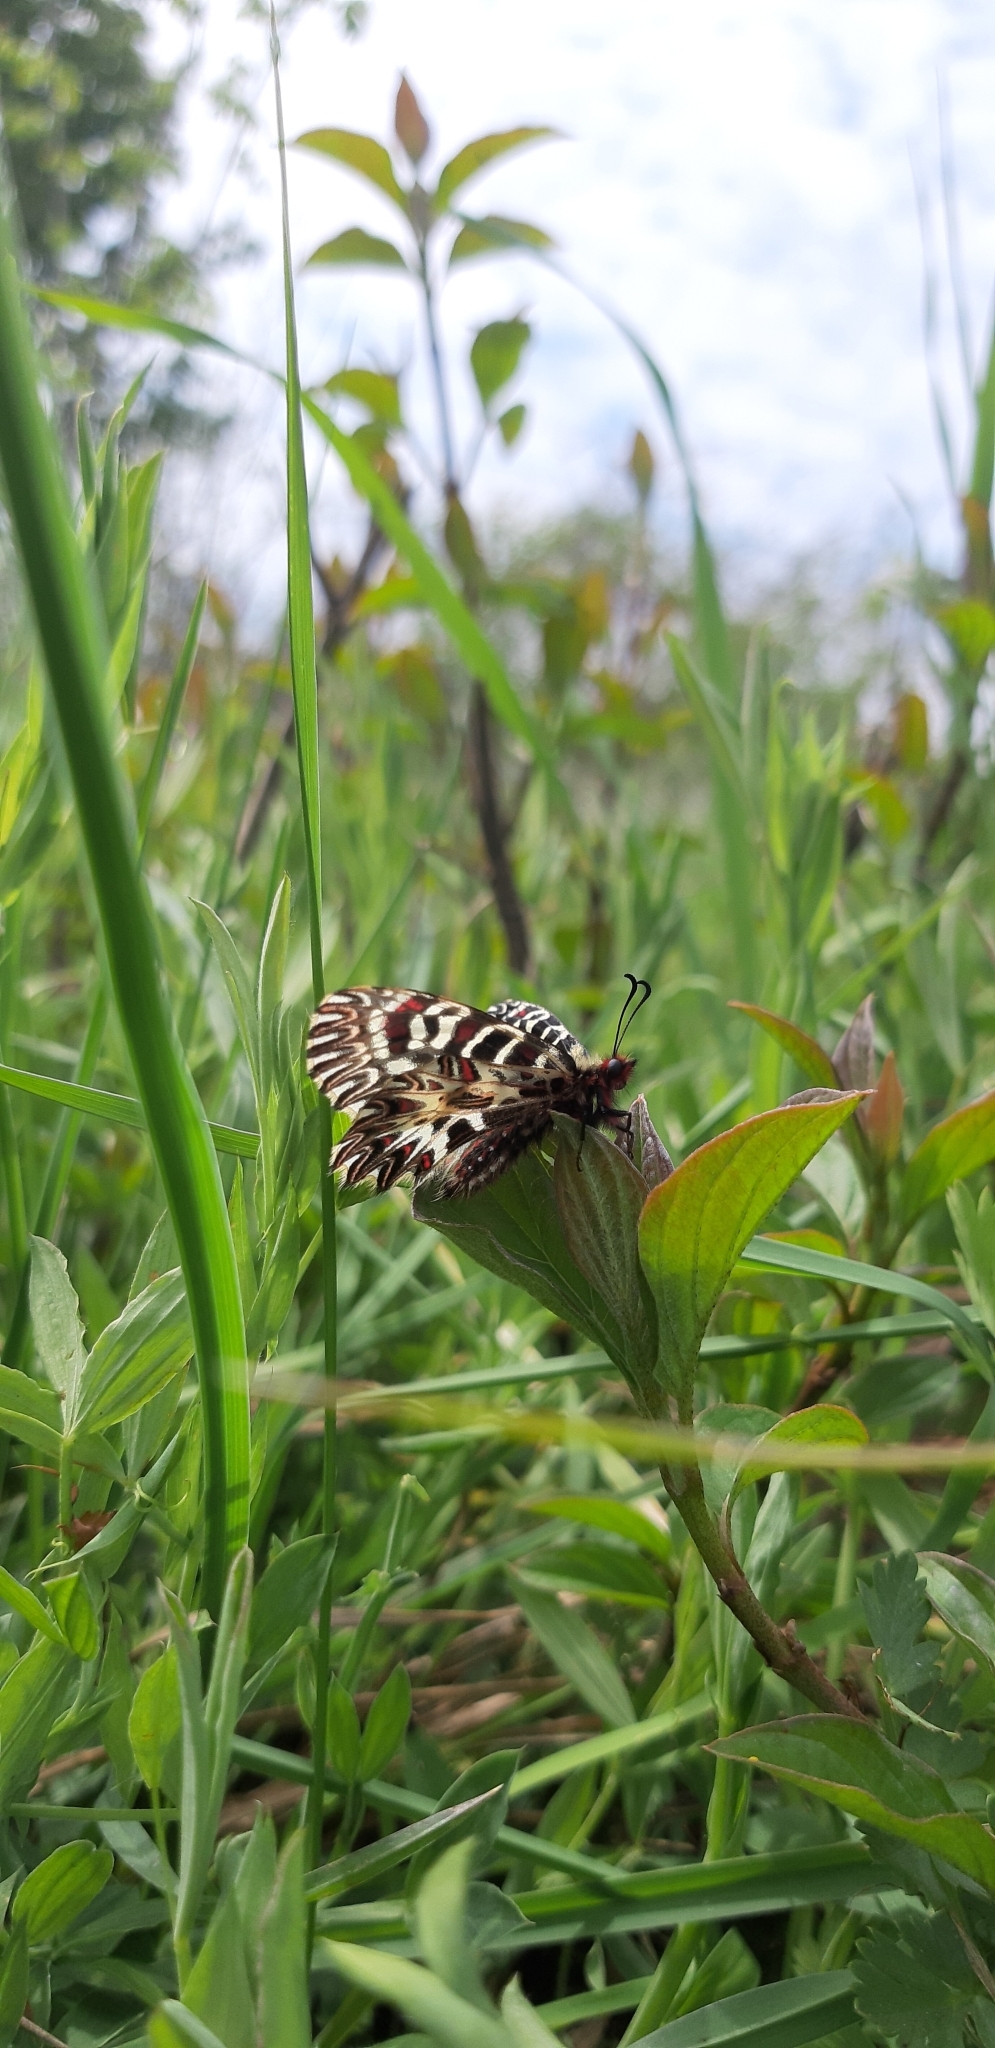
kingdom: Animalia
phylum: Arthropoda
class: Insecta
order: Lepidoptera
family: Papilionidae
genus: Zerynthia
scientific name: Zerynthia cassandra
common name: Italian festoon
